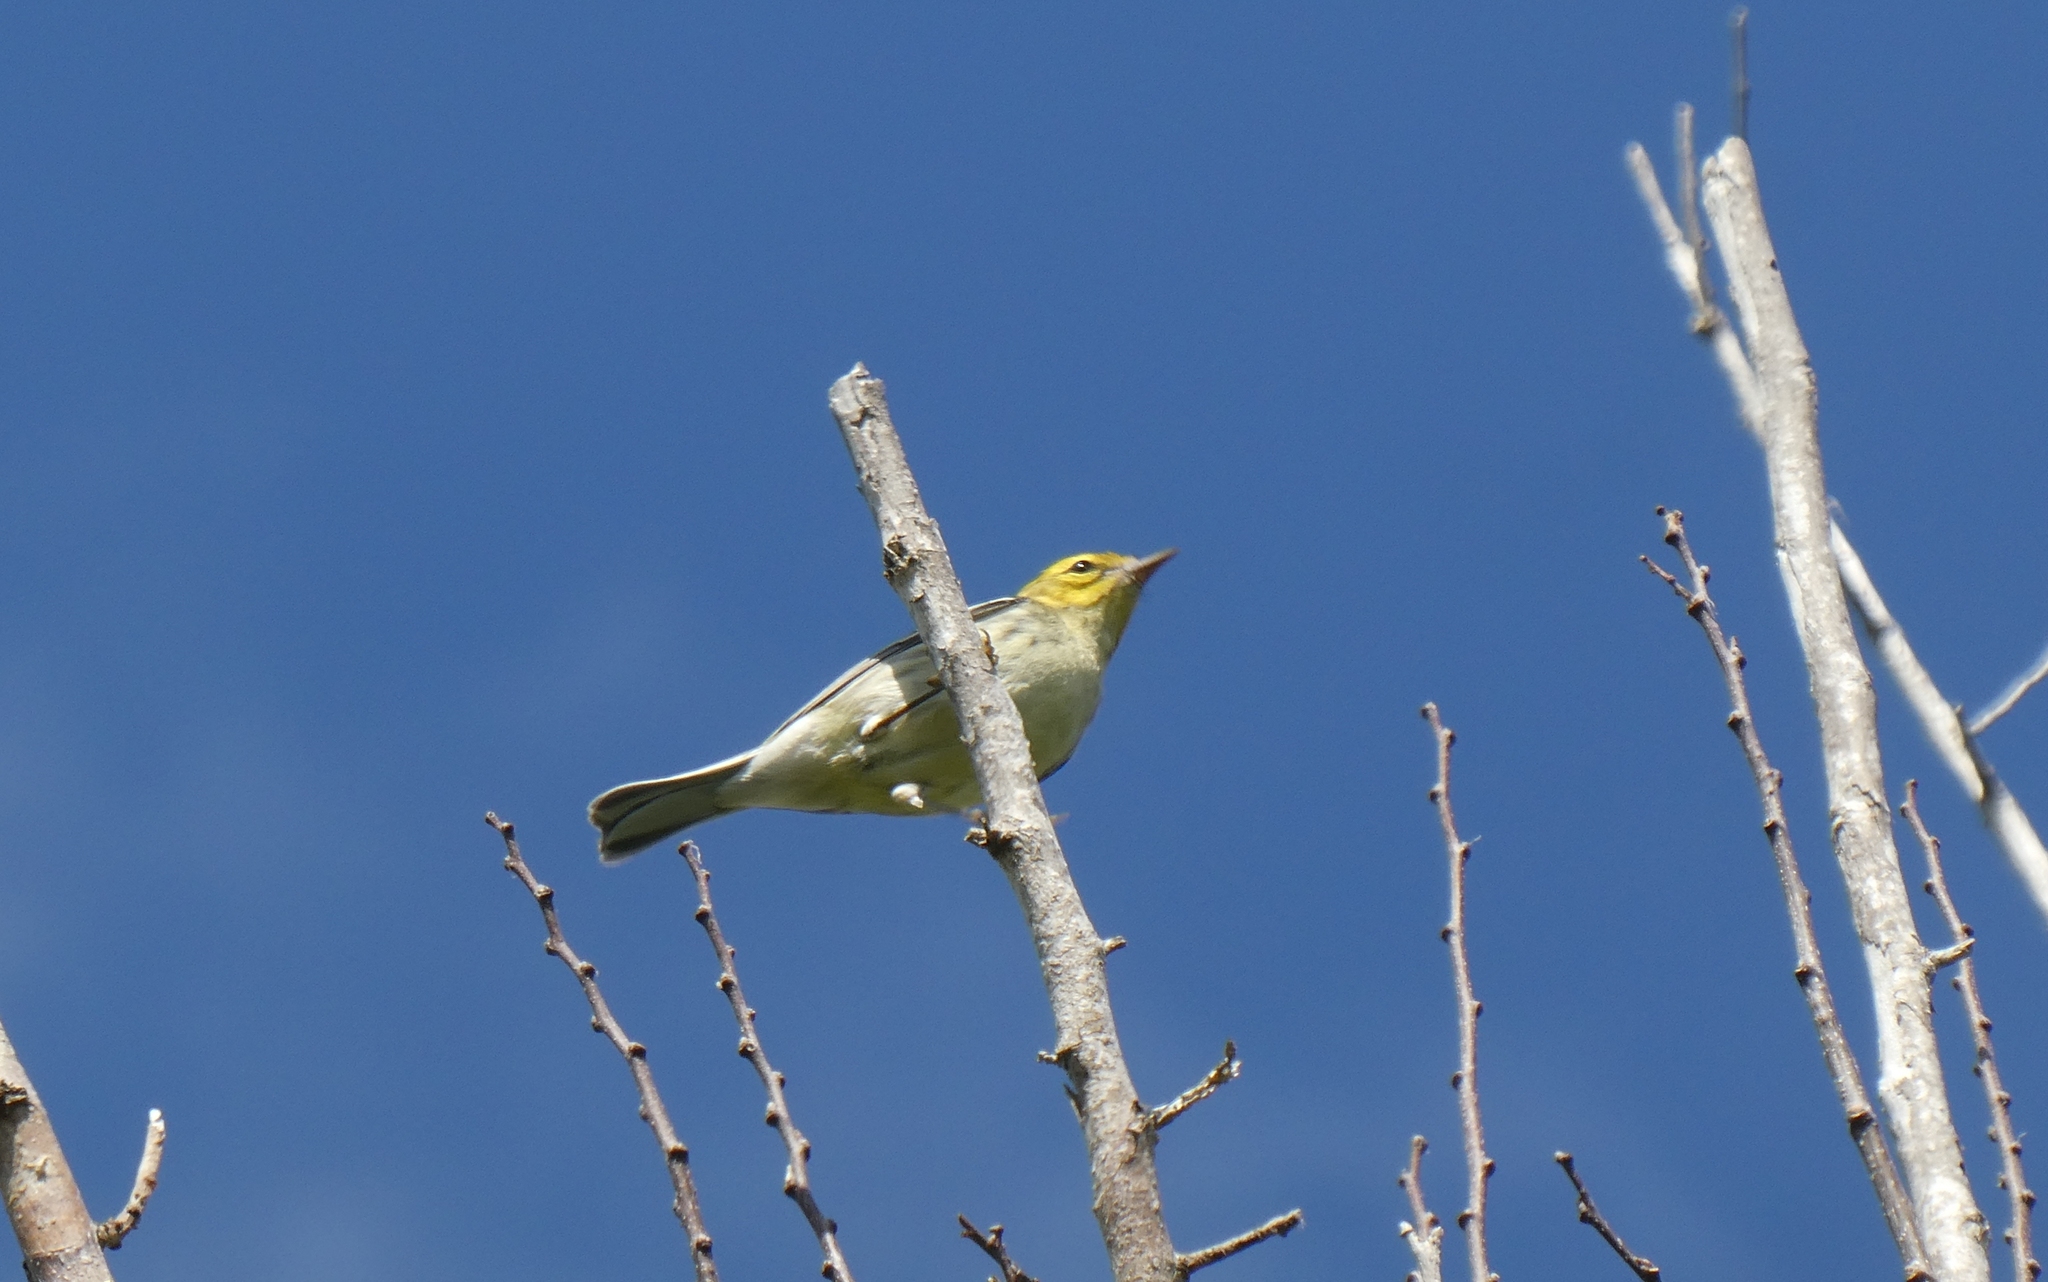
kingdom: Animalia
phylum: Chordata
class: Aves
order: Passeriformes
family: Parulidae
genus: Setophaga
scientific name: Setophaga virens
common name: Black-throated green warbler
